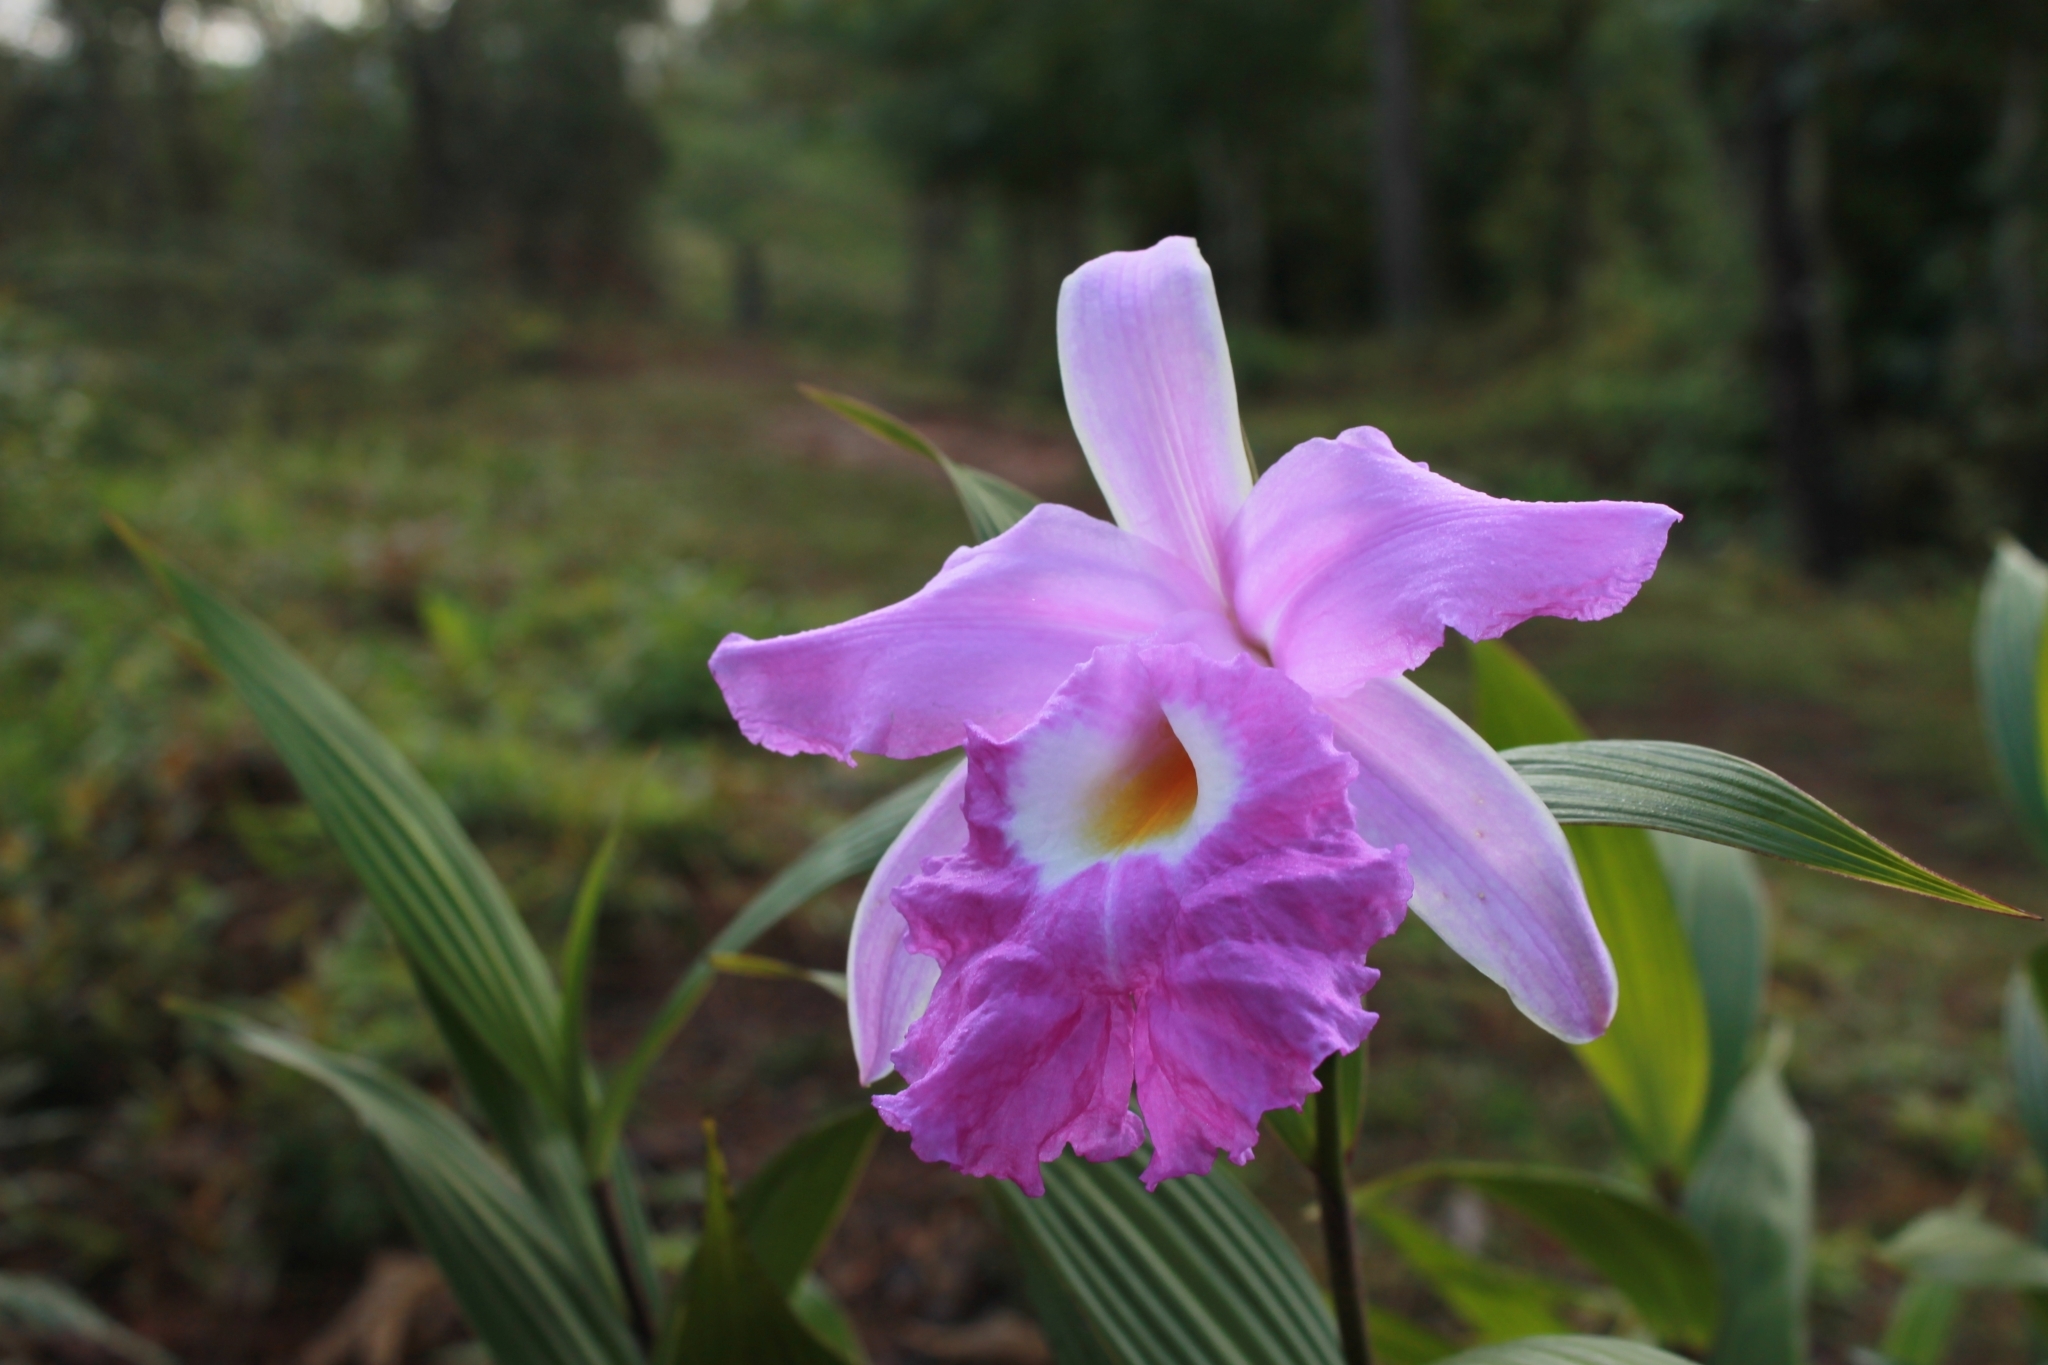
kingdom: Plantae
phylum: Tracheophyta
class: Liliopsida
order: Asparagales
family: Orchidaceae
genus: Sobralia
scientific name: Sobralia macrantha
